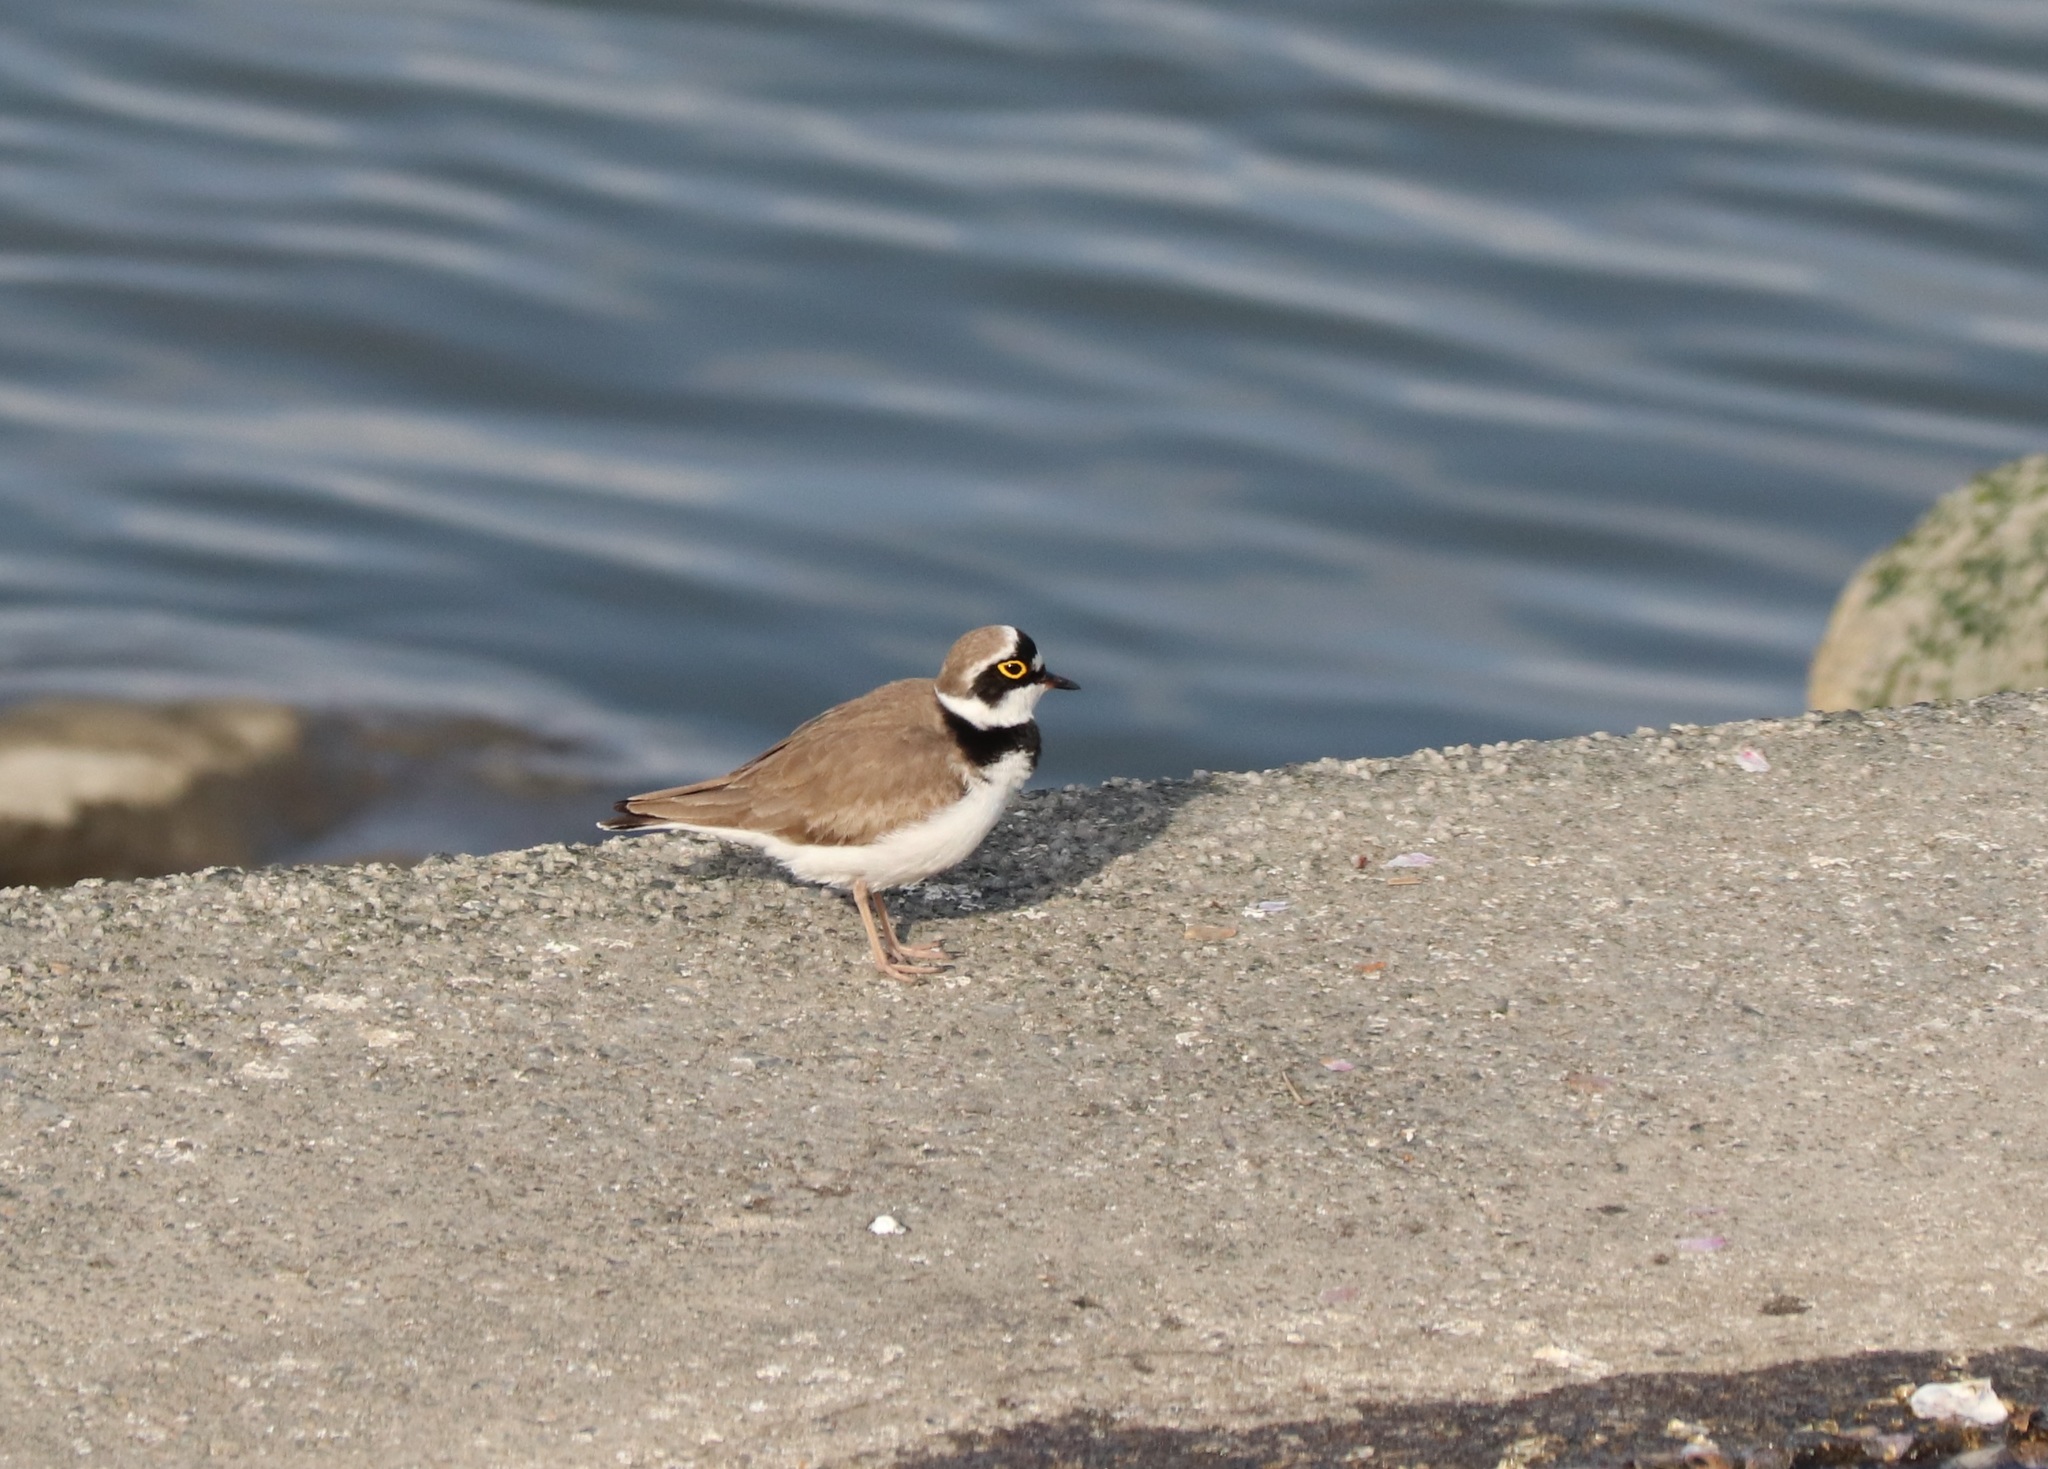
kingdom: Animalia
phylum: Chordata
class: Aves
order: Charadriiformes
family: Charadriidae
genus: Charadrius
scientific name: Charadrius dubius
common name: Little ringed plover
